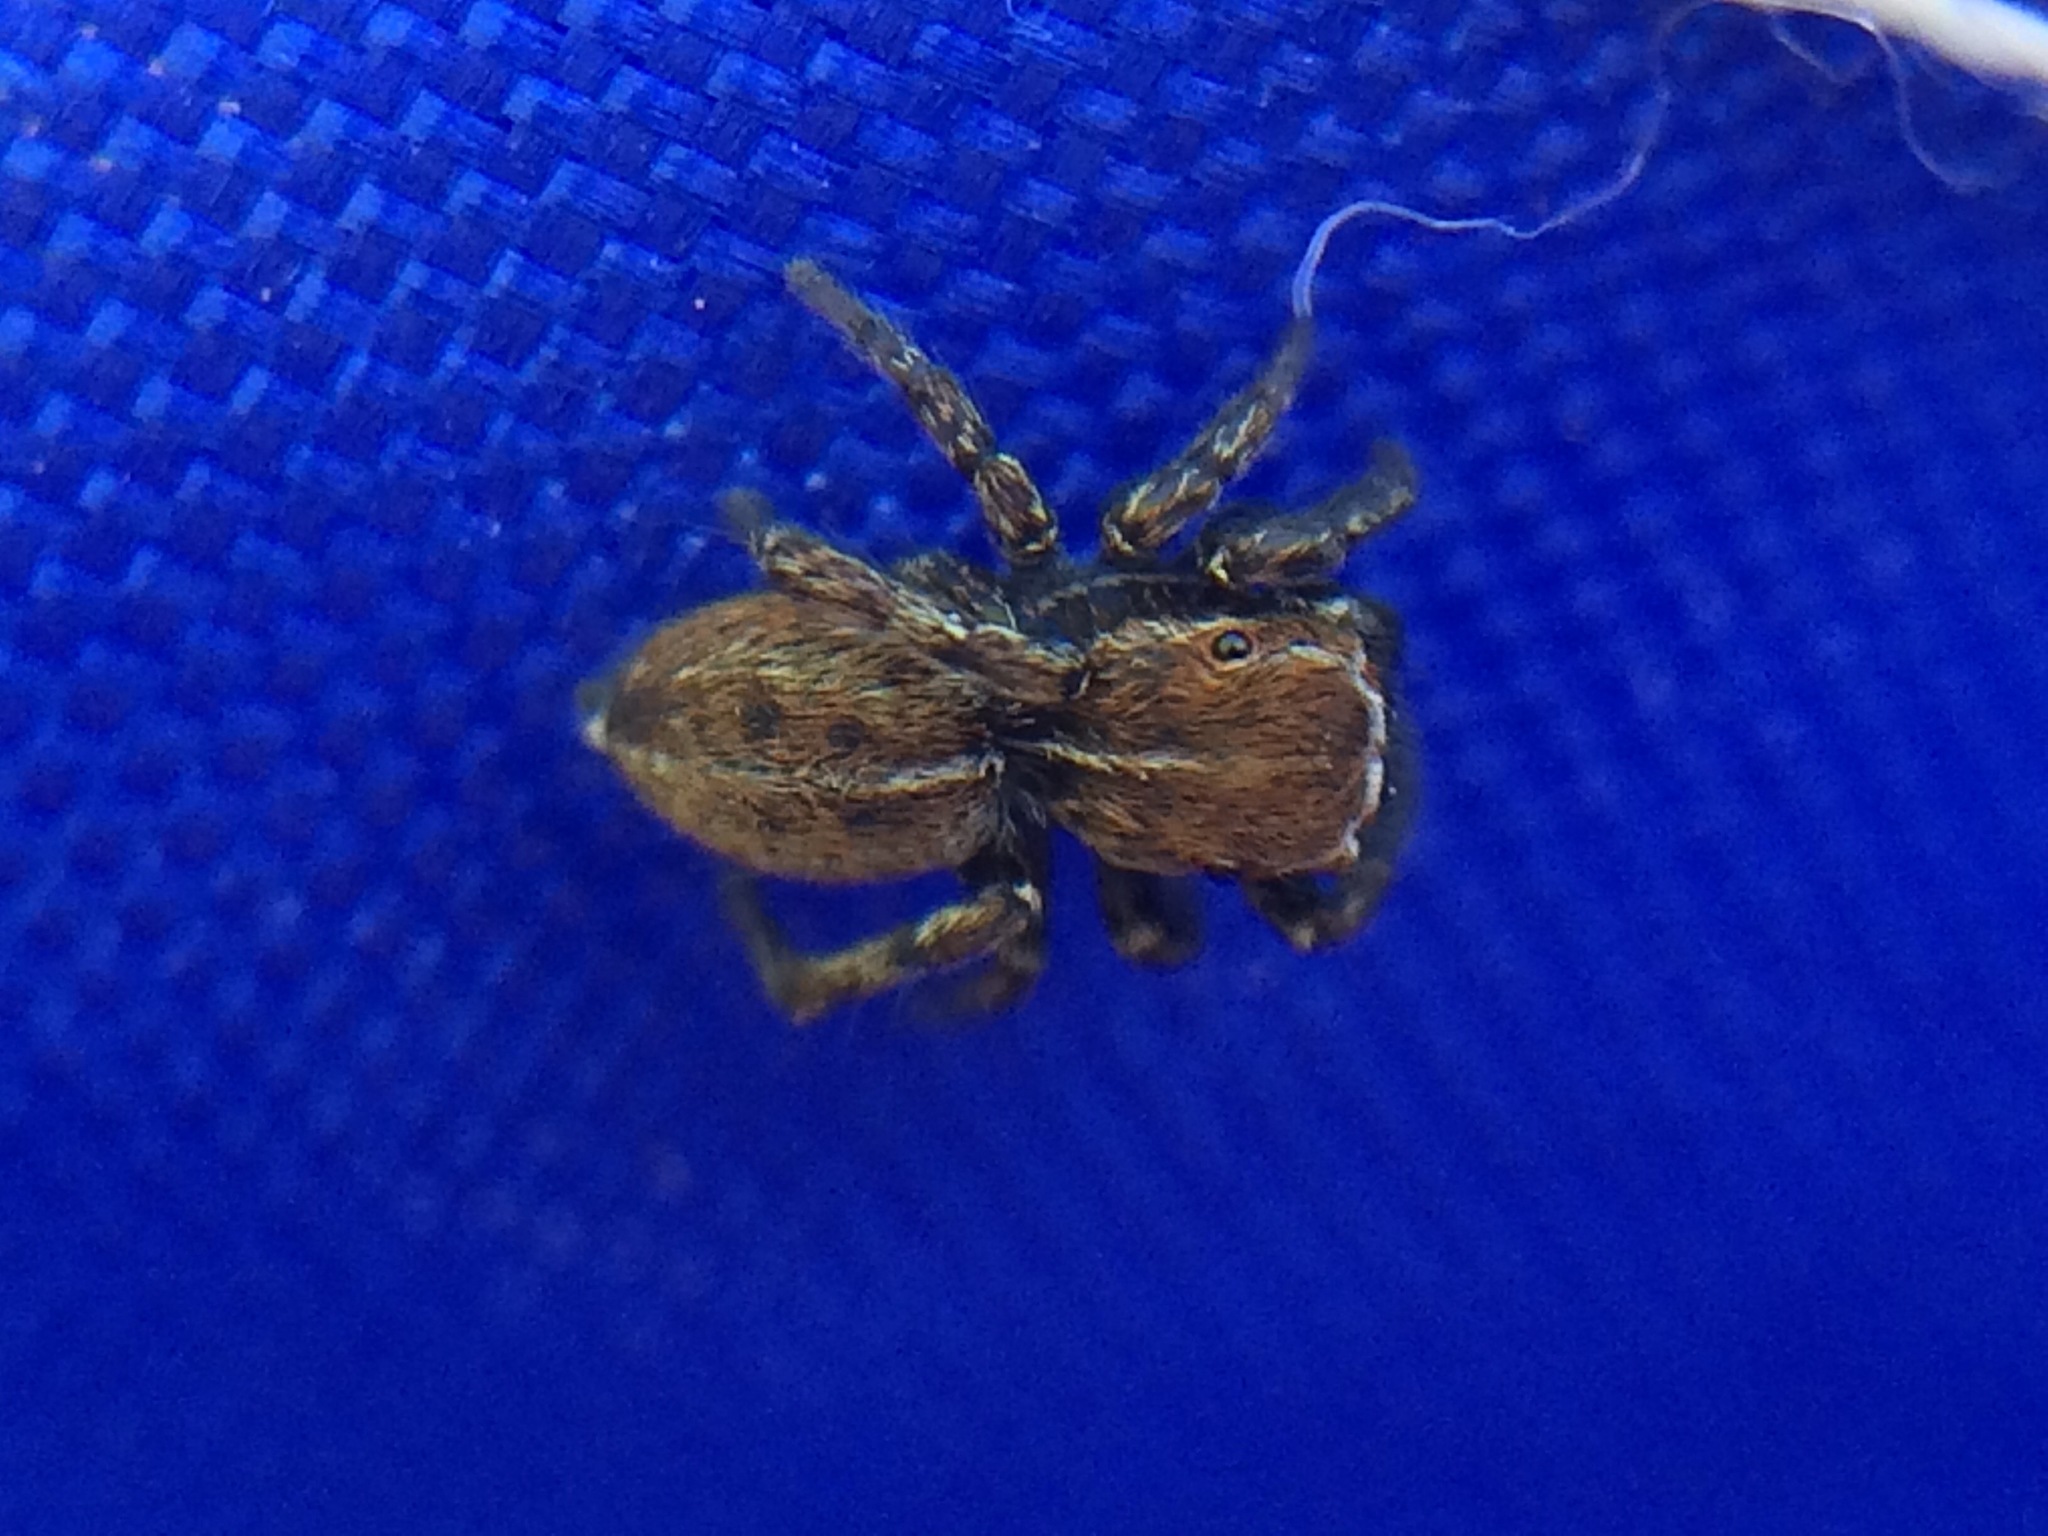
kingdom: Animalia
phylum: Arthropoda
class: Arachnida
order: Araneae
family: Salticidae
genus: Attinella
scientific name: Attinella dorsata
